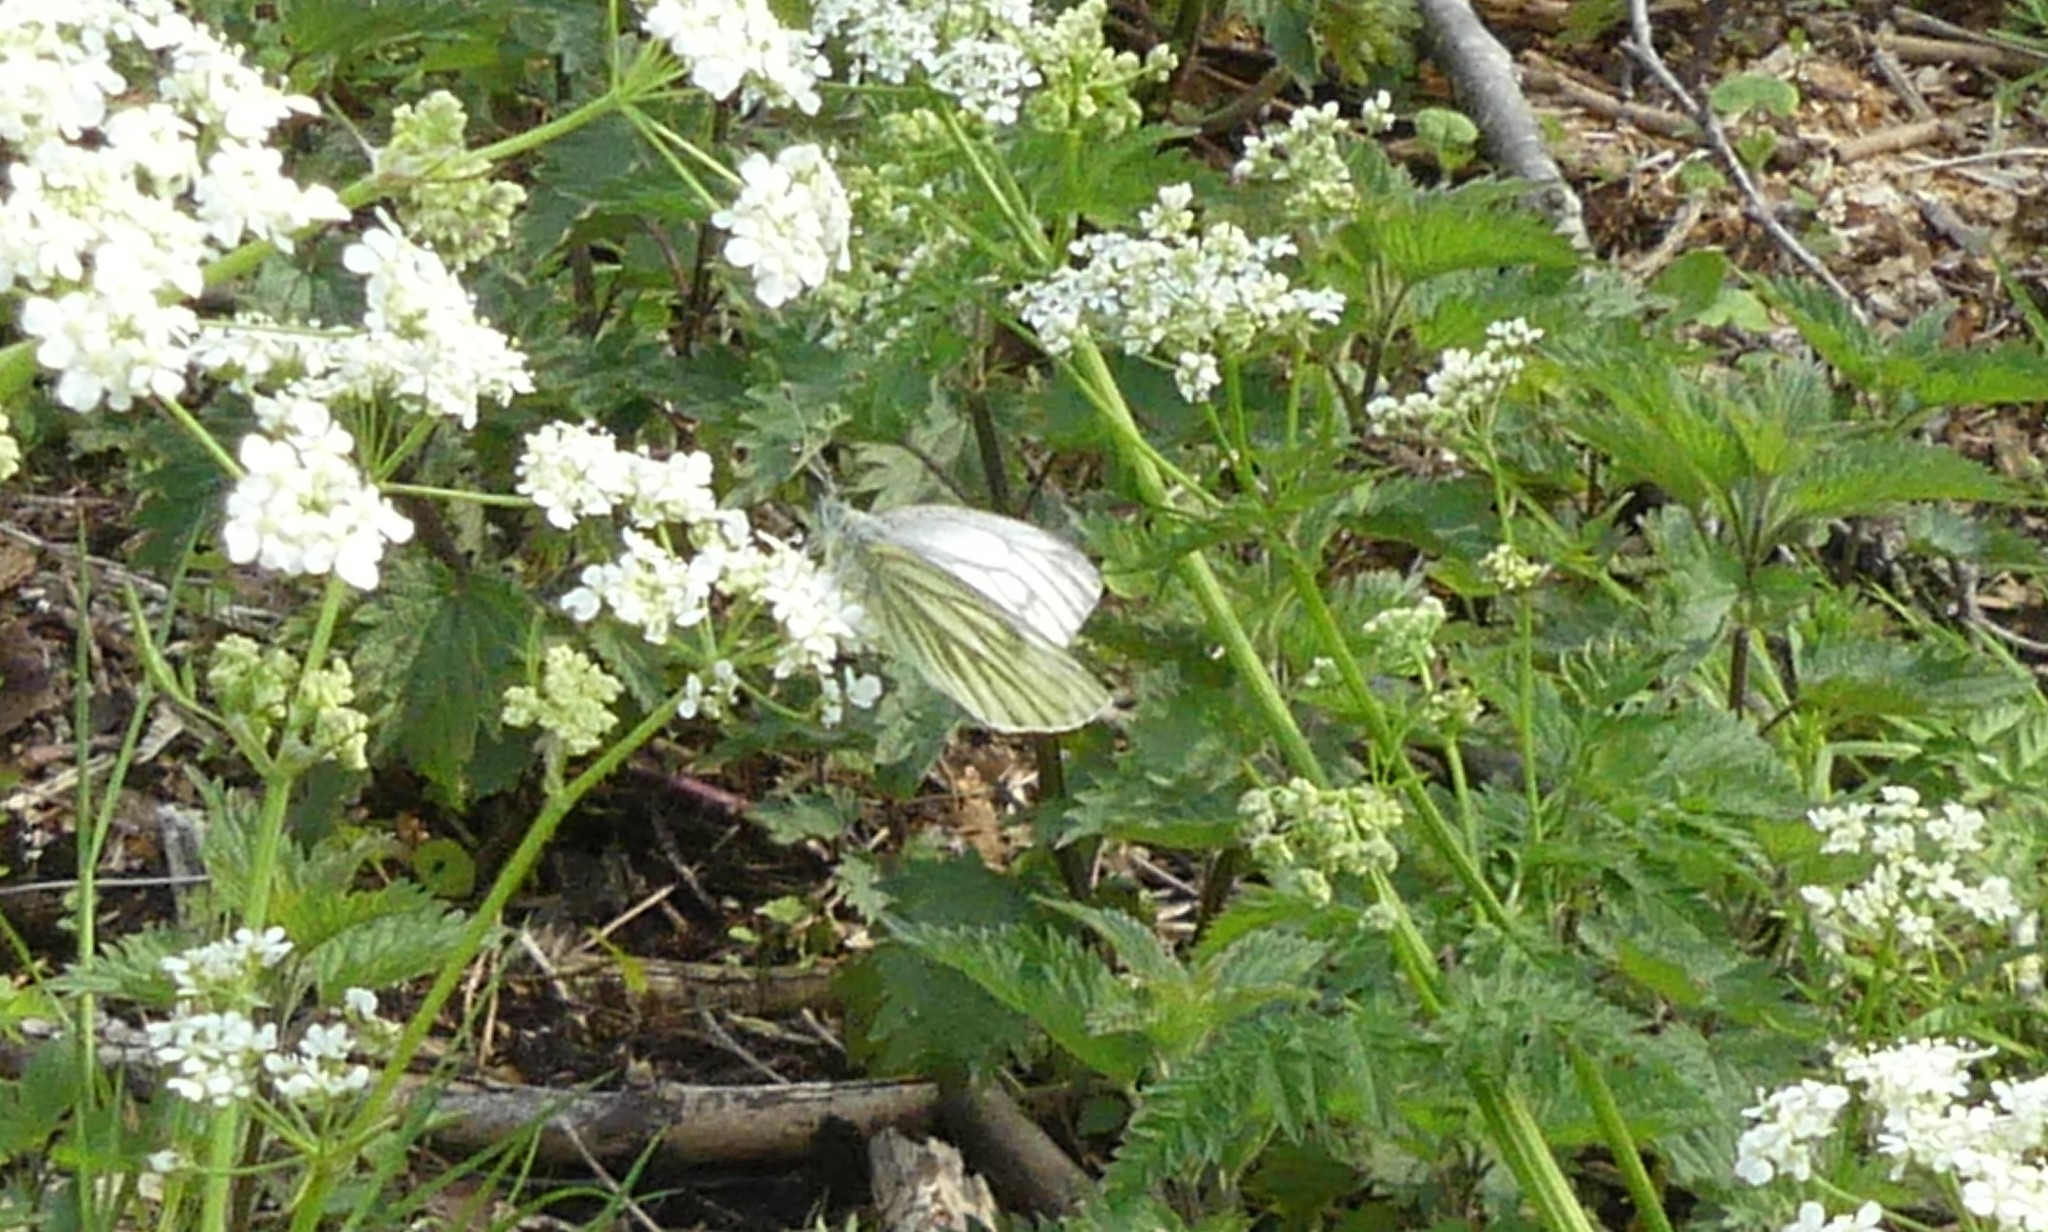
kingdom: Animalia
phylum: Arthropoda
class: Insecta
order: Lepidoptera
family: Pieridae
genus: Pieris
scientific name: Pieris napi
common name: Green-veined white
